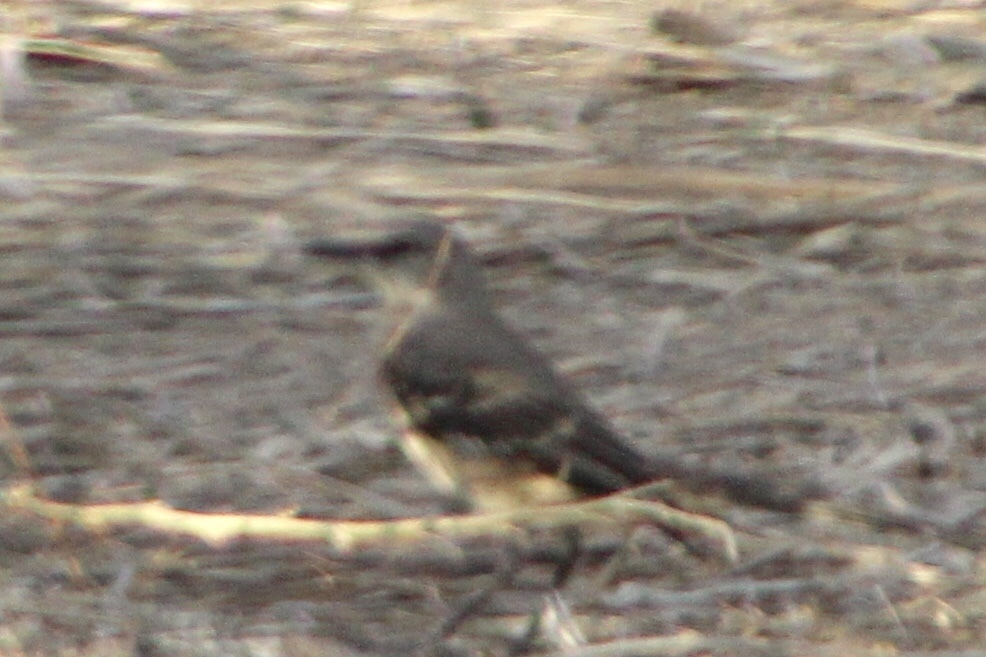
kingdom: Animalia
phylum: Chordata
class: Aves
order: Passeriformes
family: Mimidae
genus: Mimus
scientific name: Mimus polyglottos
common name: Northern mockingbird
